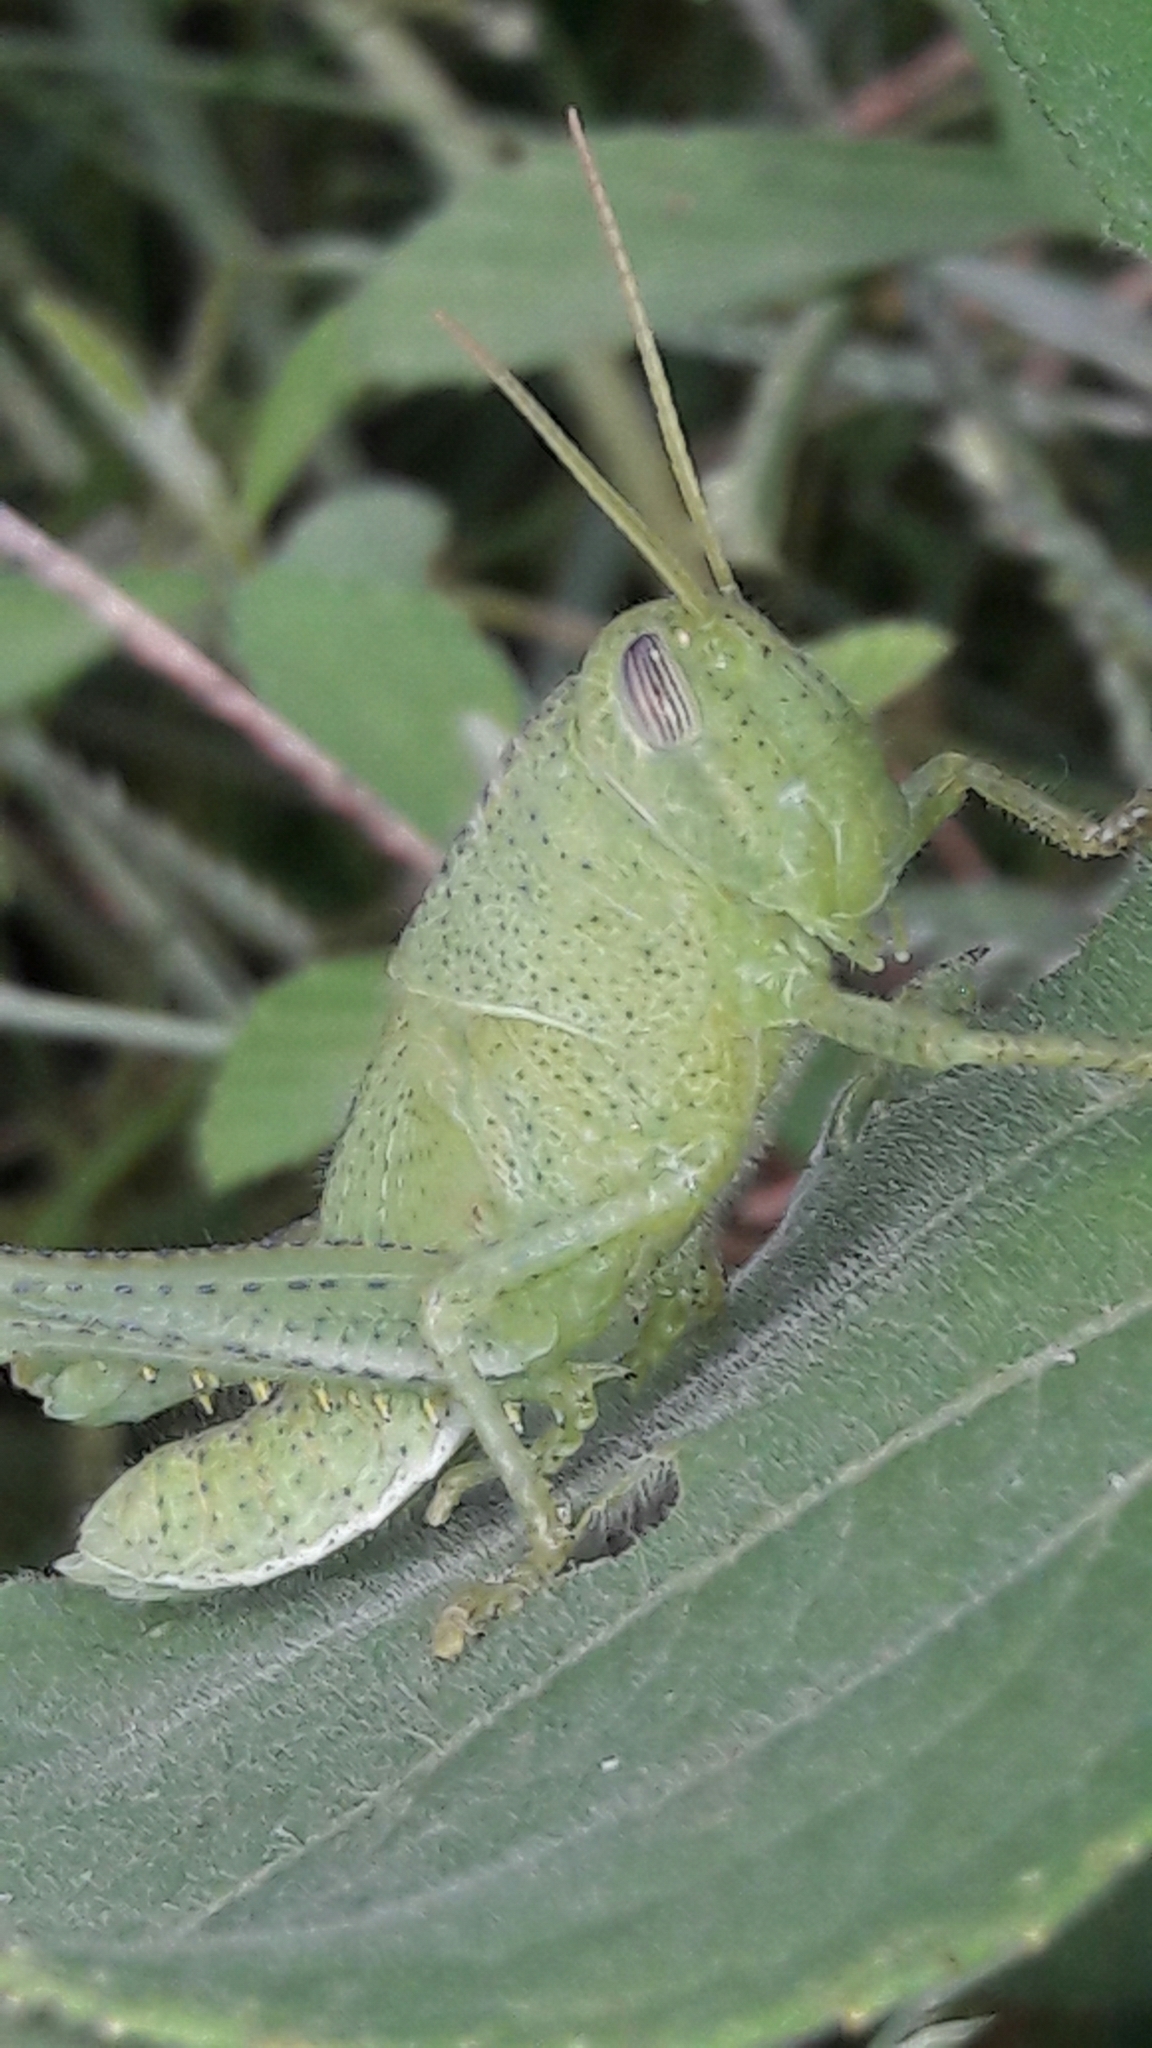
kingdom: Animalia
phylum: Arthropoda
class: Insecta
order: Orthoptera
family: Acrididae
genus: Schistocerca
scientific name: Schistocerca flavofasciata
